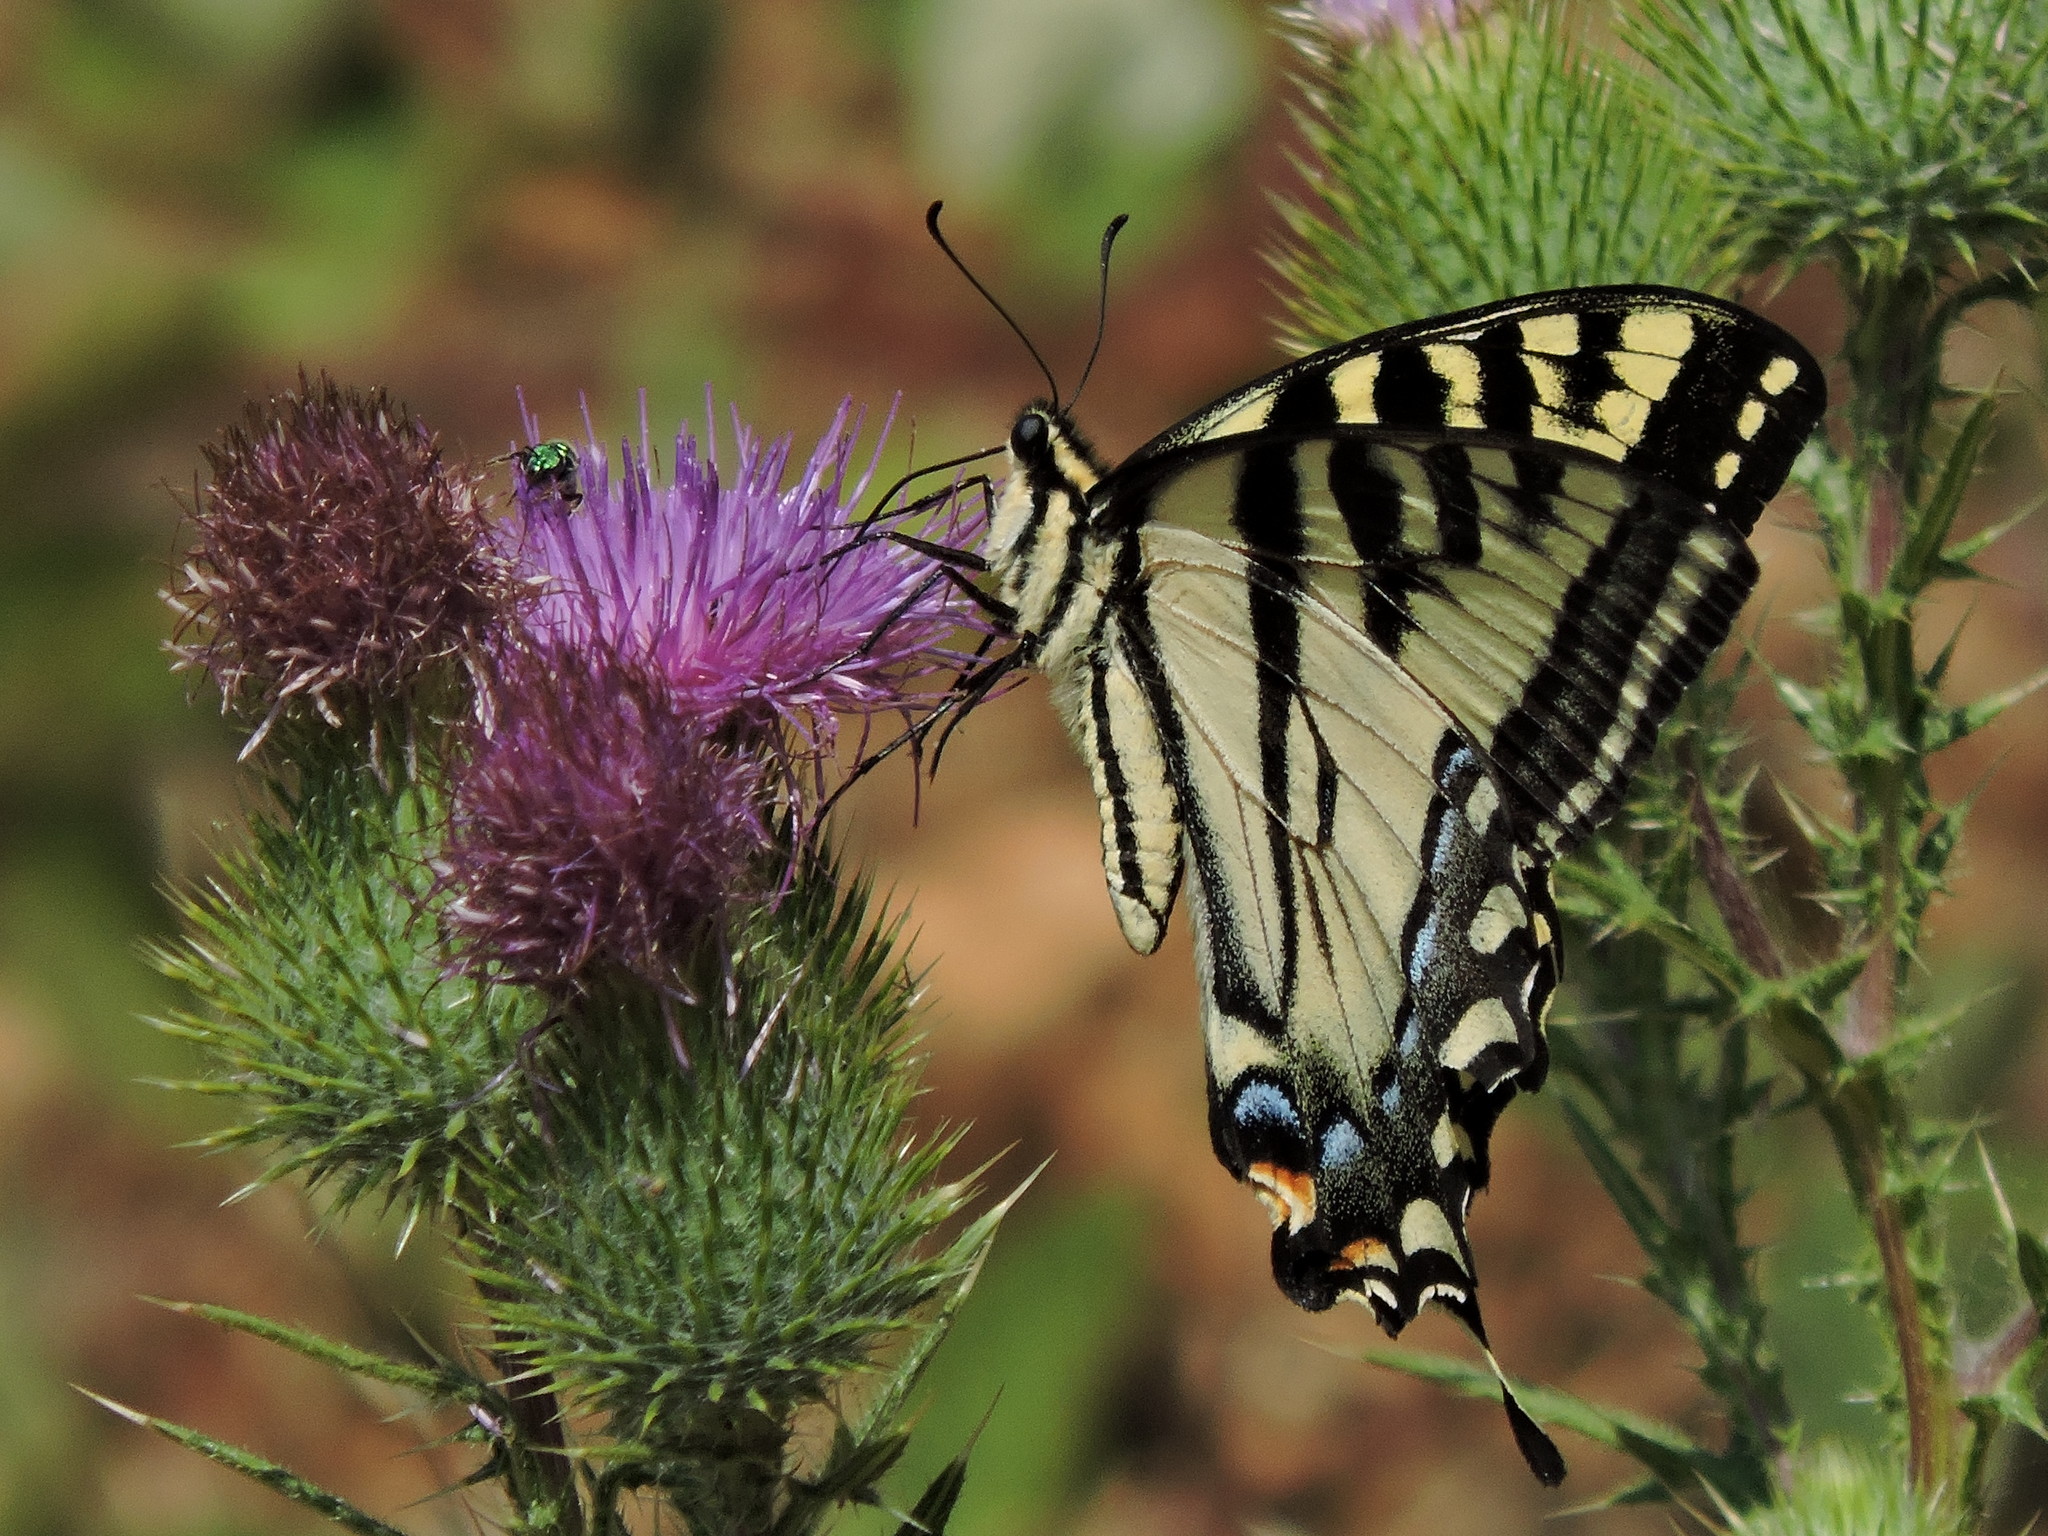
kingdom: Animalia
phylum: Arthropoda
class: Insecta
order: Lepidoptera
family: Papilionidae
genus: Papilio
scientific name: Papilio rutulus
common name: Western tiger swallowtail
